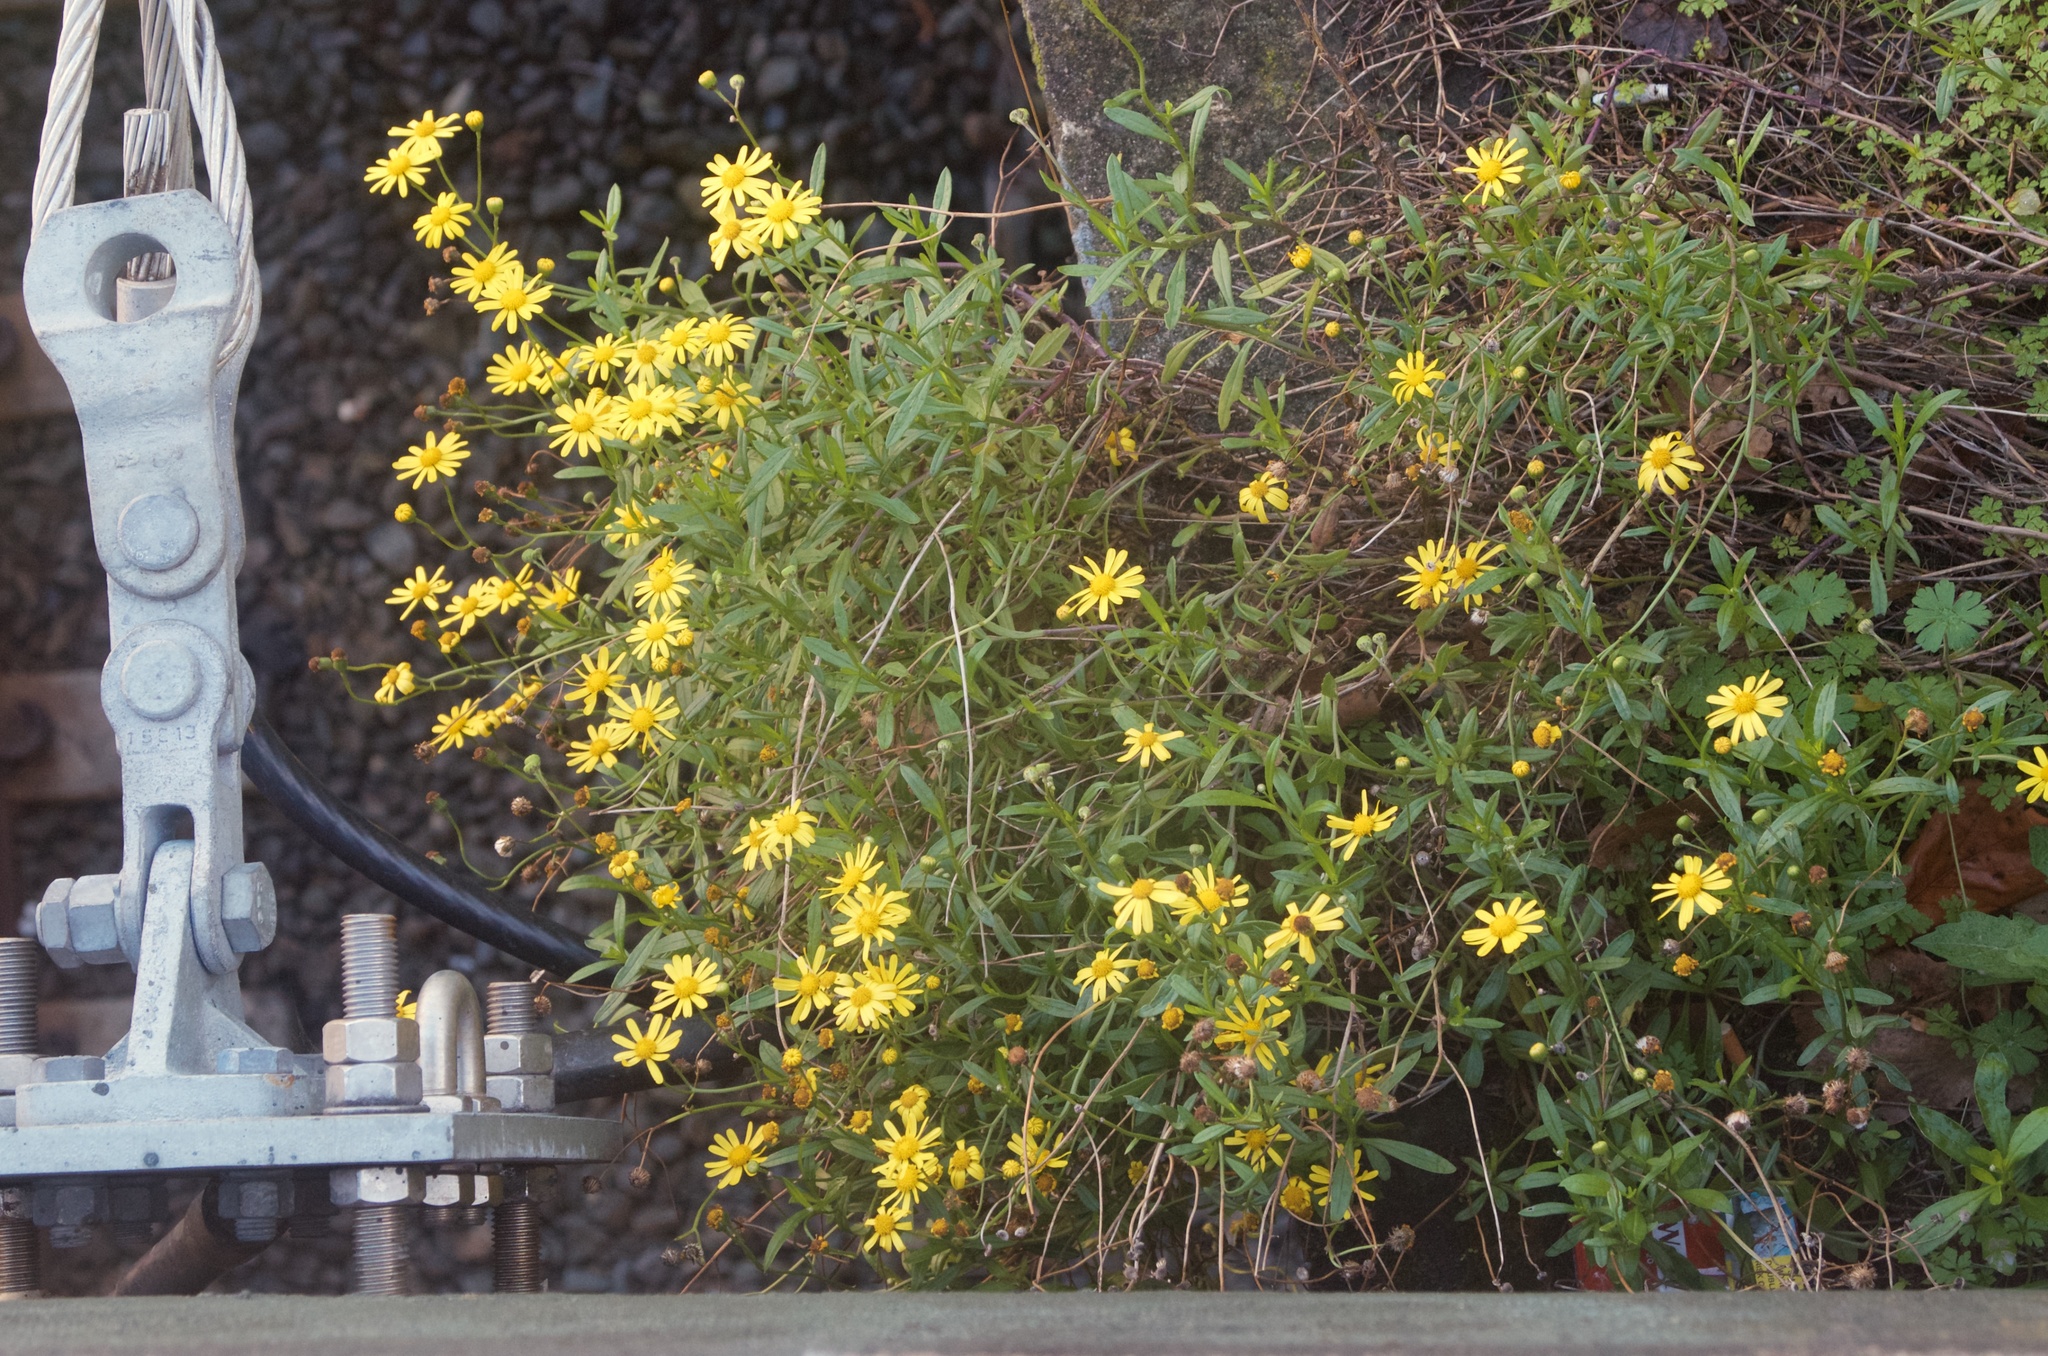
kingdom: Plantae
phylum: Tracheophyta
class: Magnoliopsida
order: Asterales
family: Asteraceae
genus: Senecio
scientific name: Senecio skirrhodon
